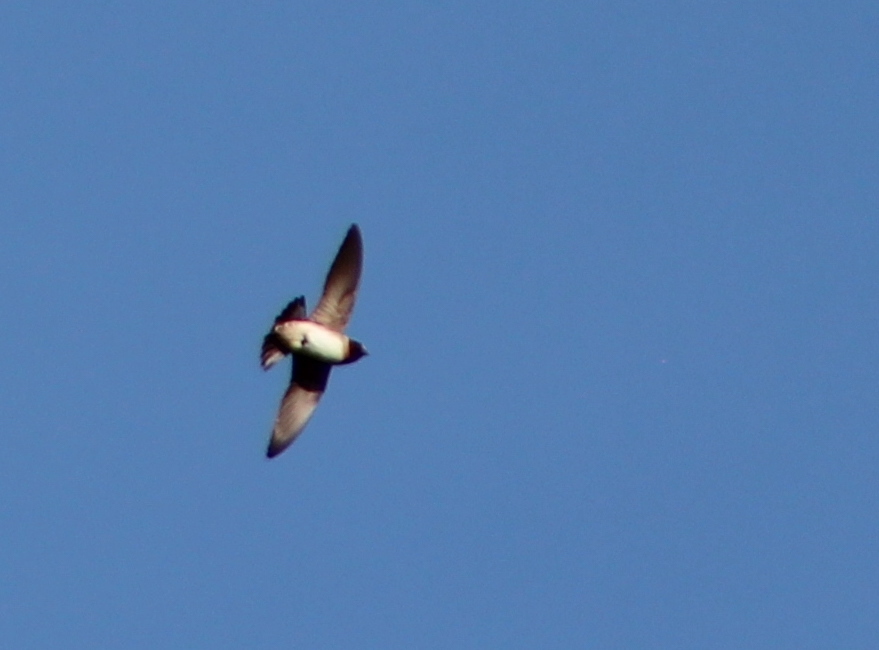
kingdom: Animalia
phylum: Chordata
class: Aves
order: Passeriformes
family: Hirundinidae
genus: Petrochelidon
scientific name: Petrochelidon pyrrhonota
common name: American cliff swallow
